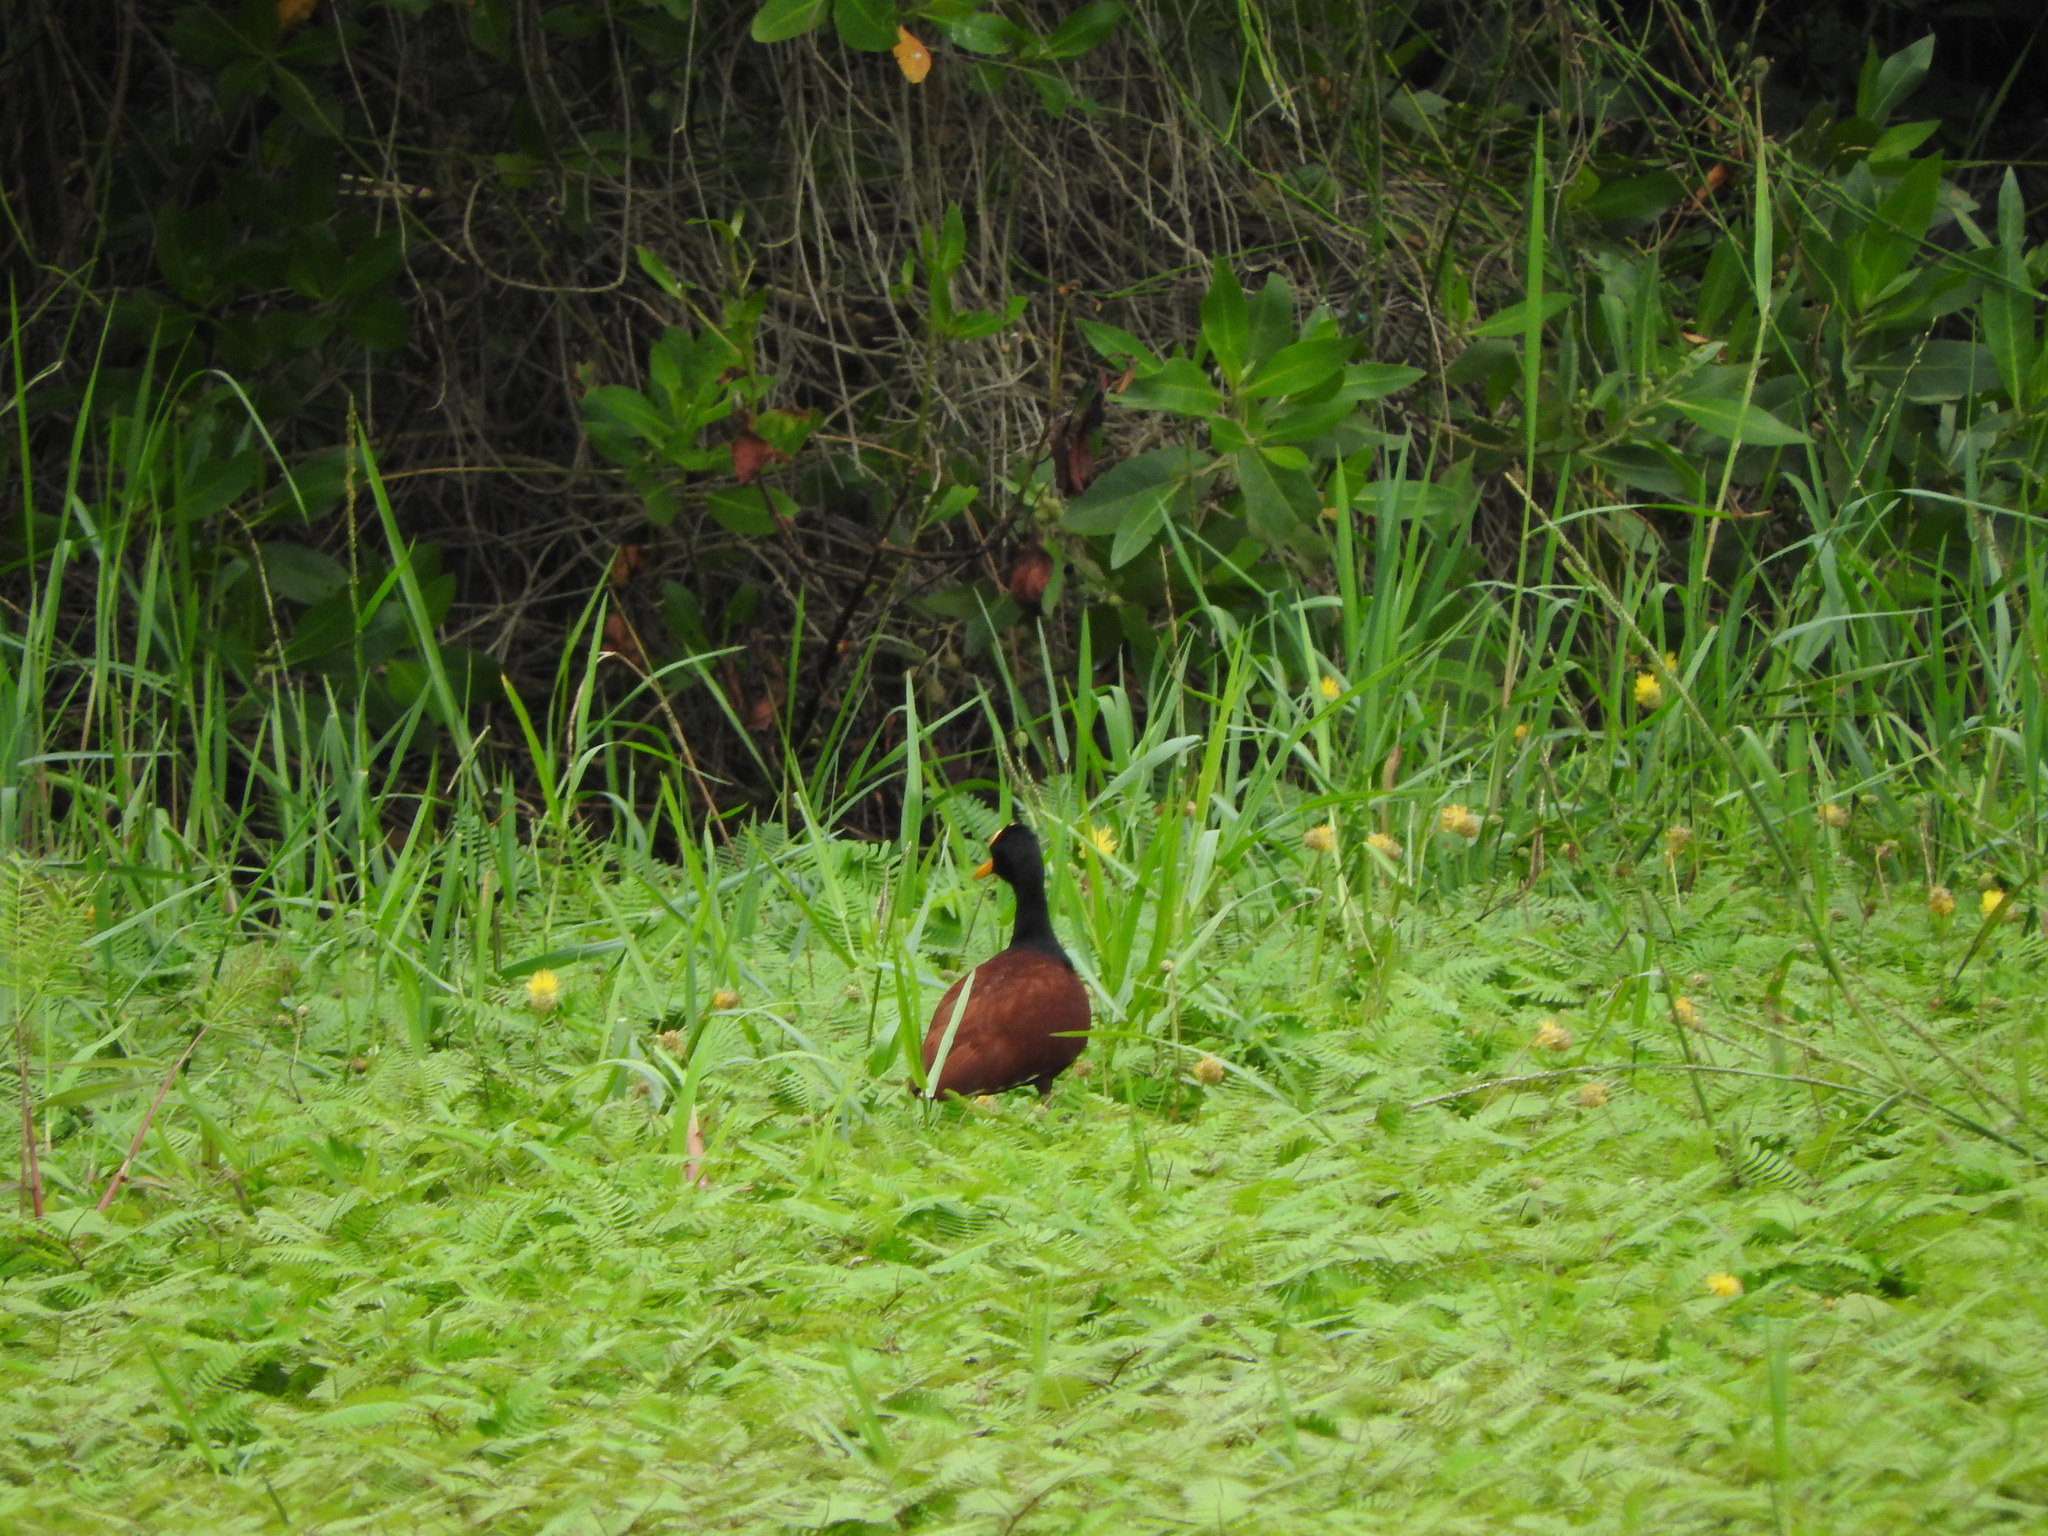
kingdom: Animalia
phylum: Chordata
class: Aves
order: Charadriiformes
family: Jacanidae
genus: Jacana
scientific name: Jacana spinosa
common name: Northern jacana
